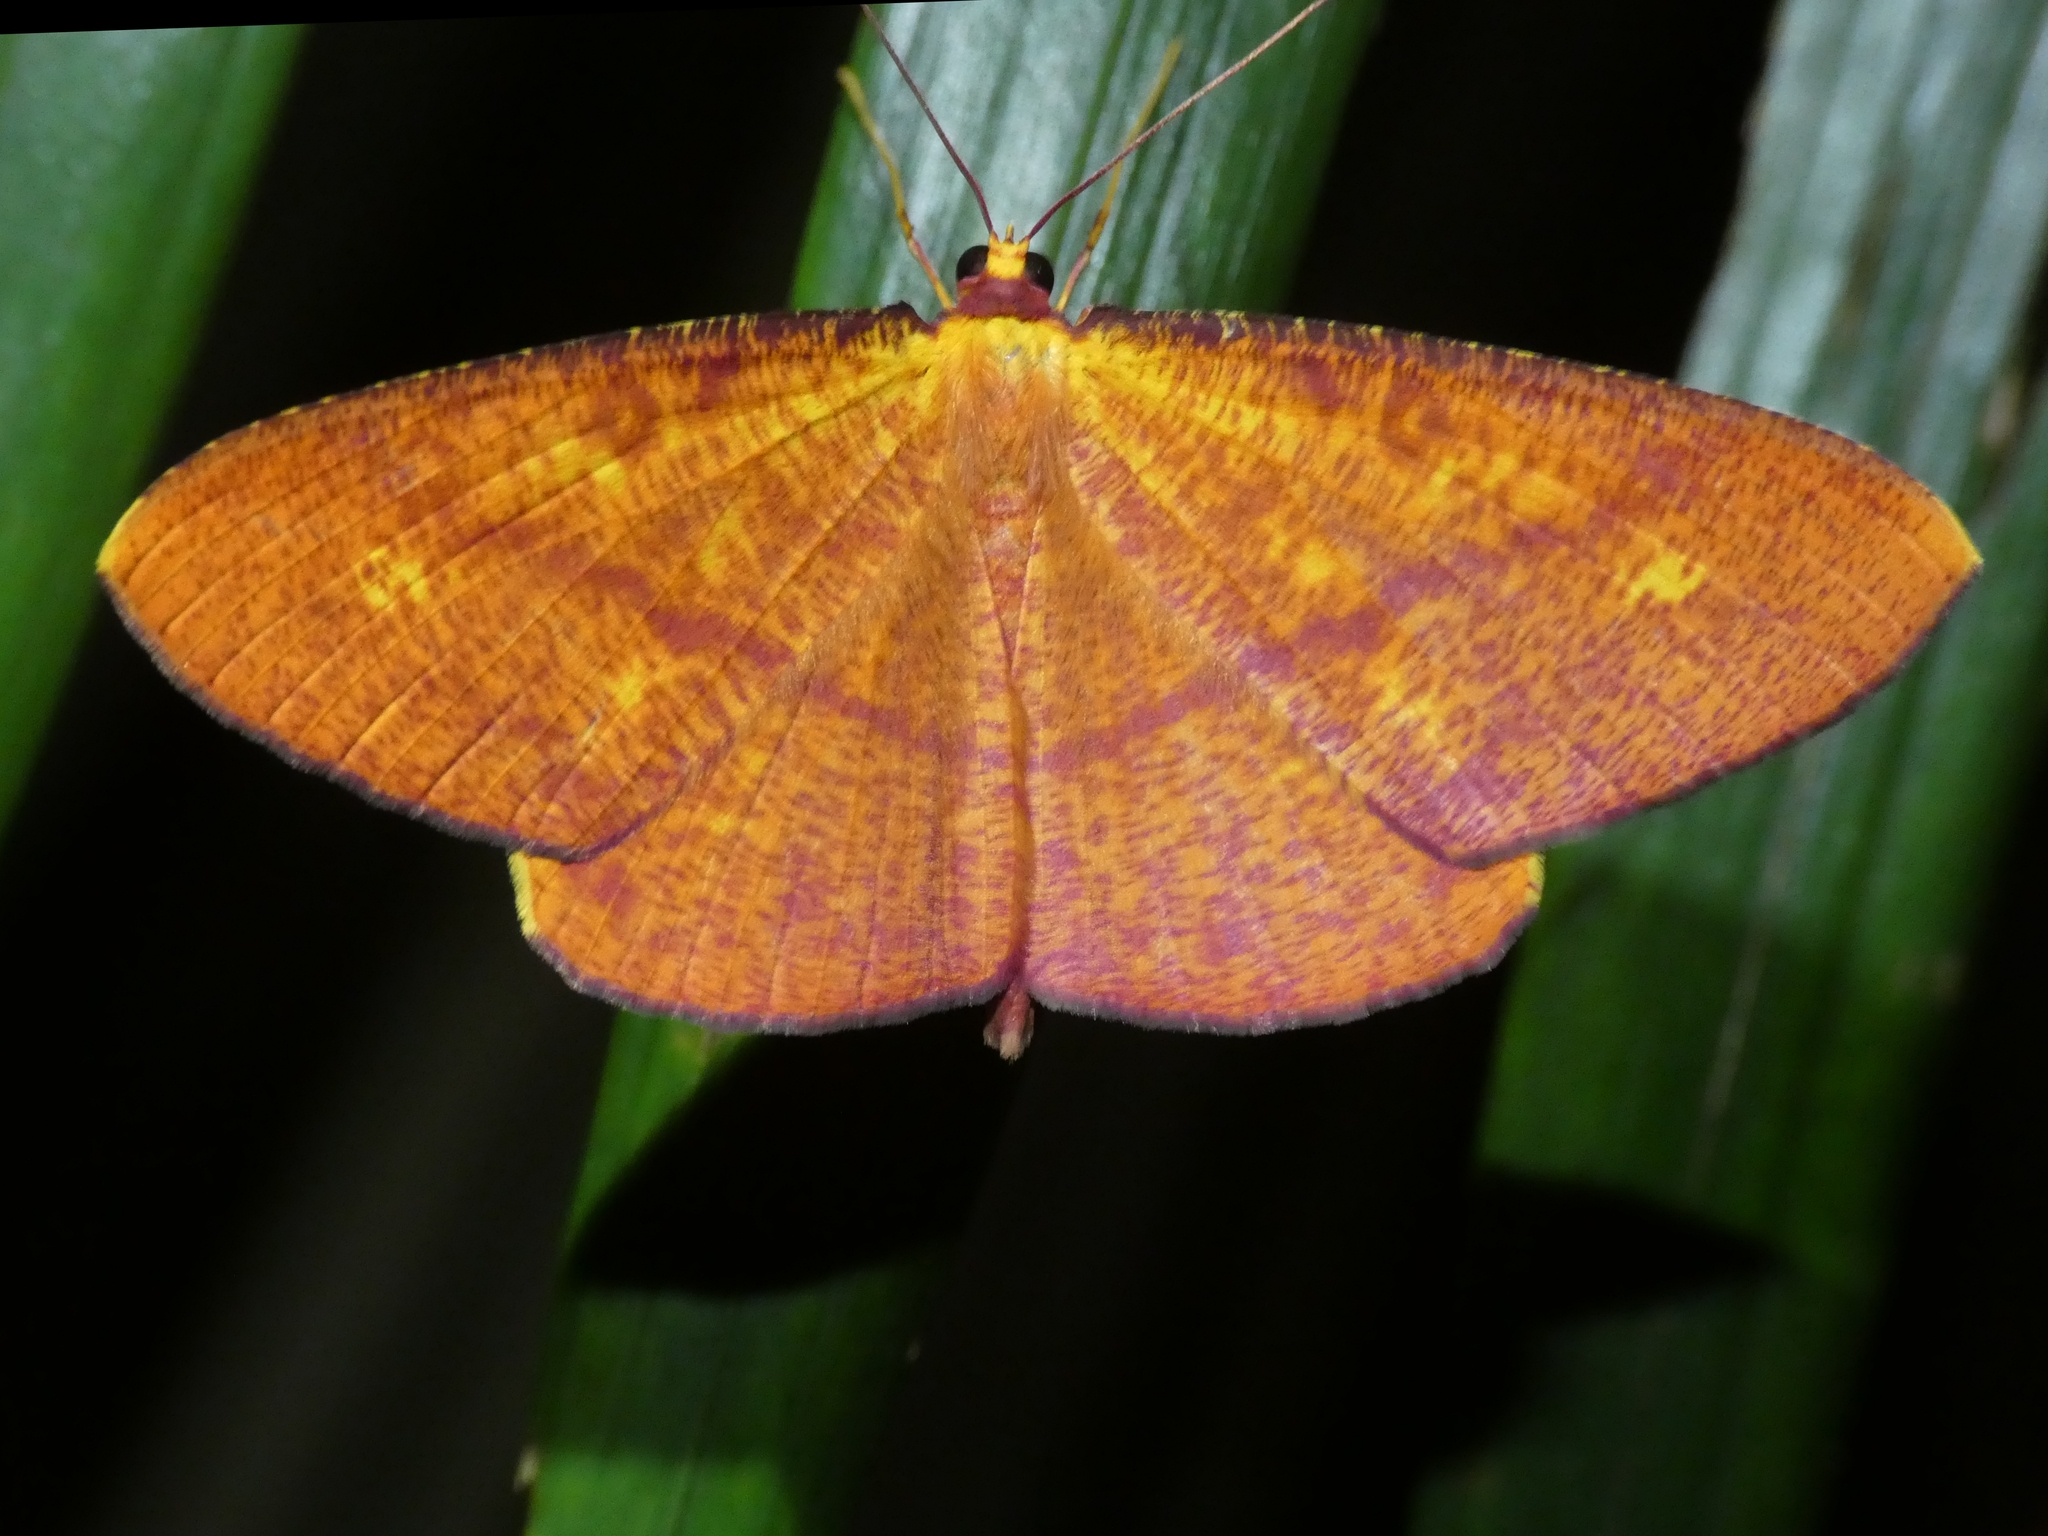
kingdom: Animalia
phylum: Arthropoda
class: Insecta
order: Lepidoptera
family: Geometridae
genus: Eumelea
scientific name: Eumelea sanguinifusa
